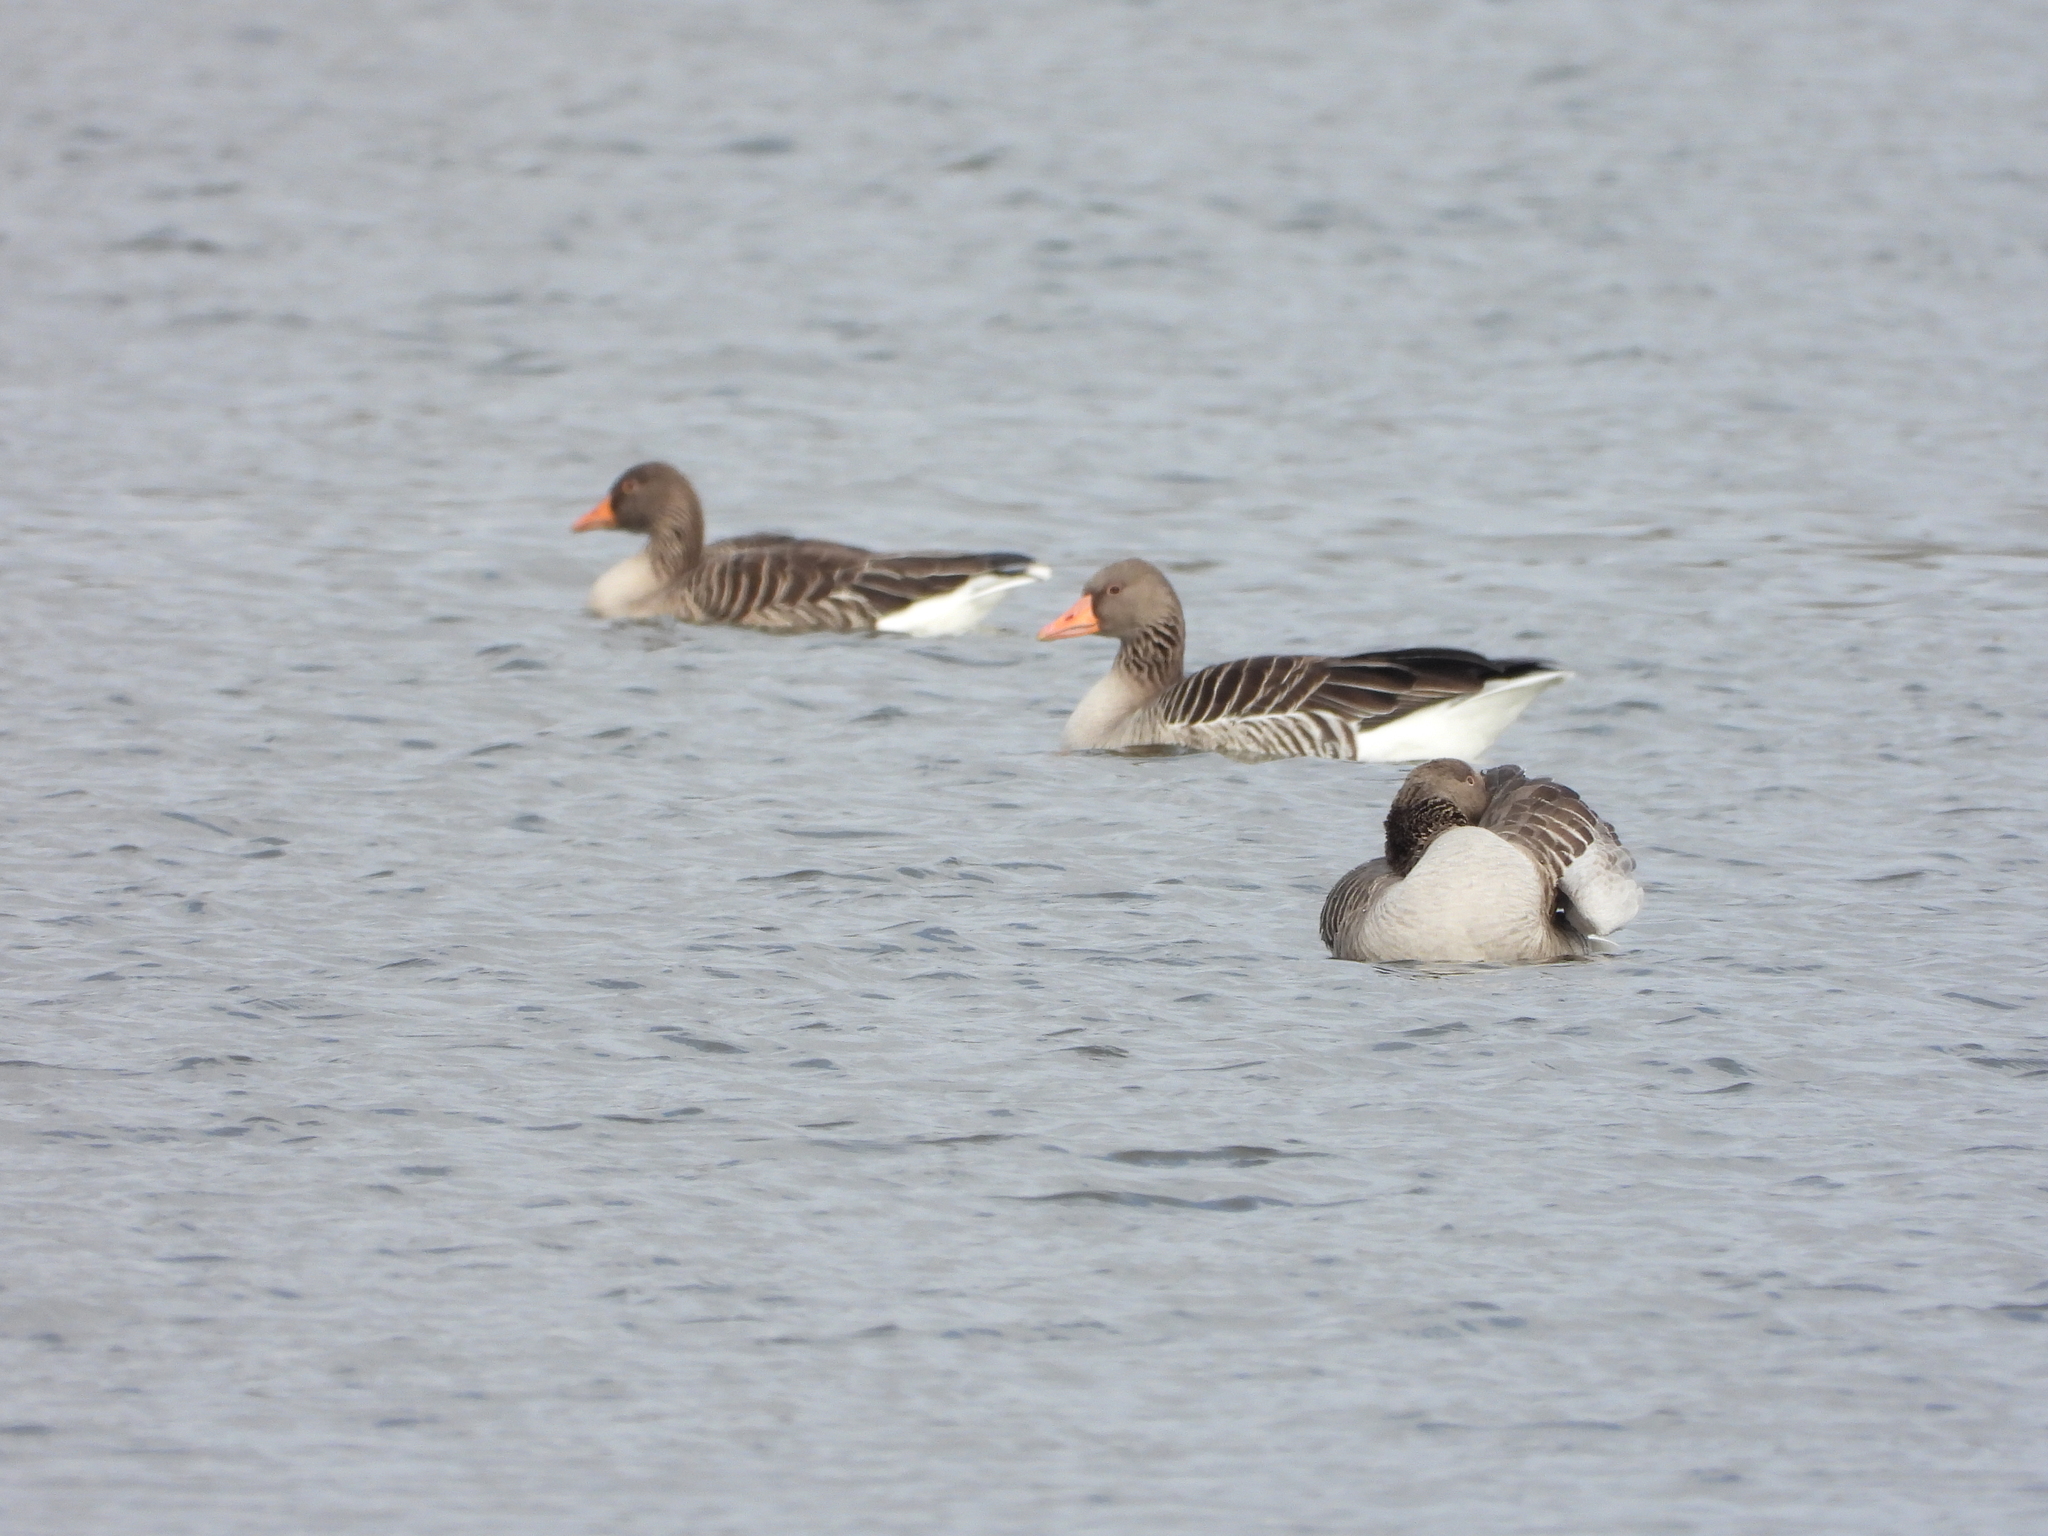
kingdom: Animalia
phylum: Chordata
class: Aves
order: Anseriformes
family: Anatidae
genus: Anser
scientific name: Anser anser
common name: Greylag goose
